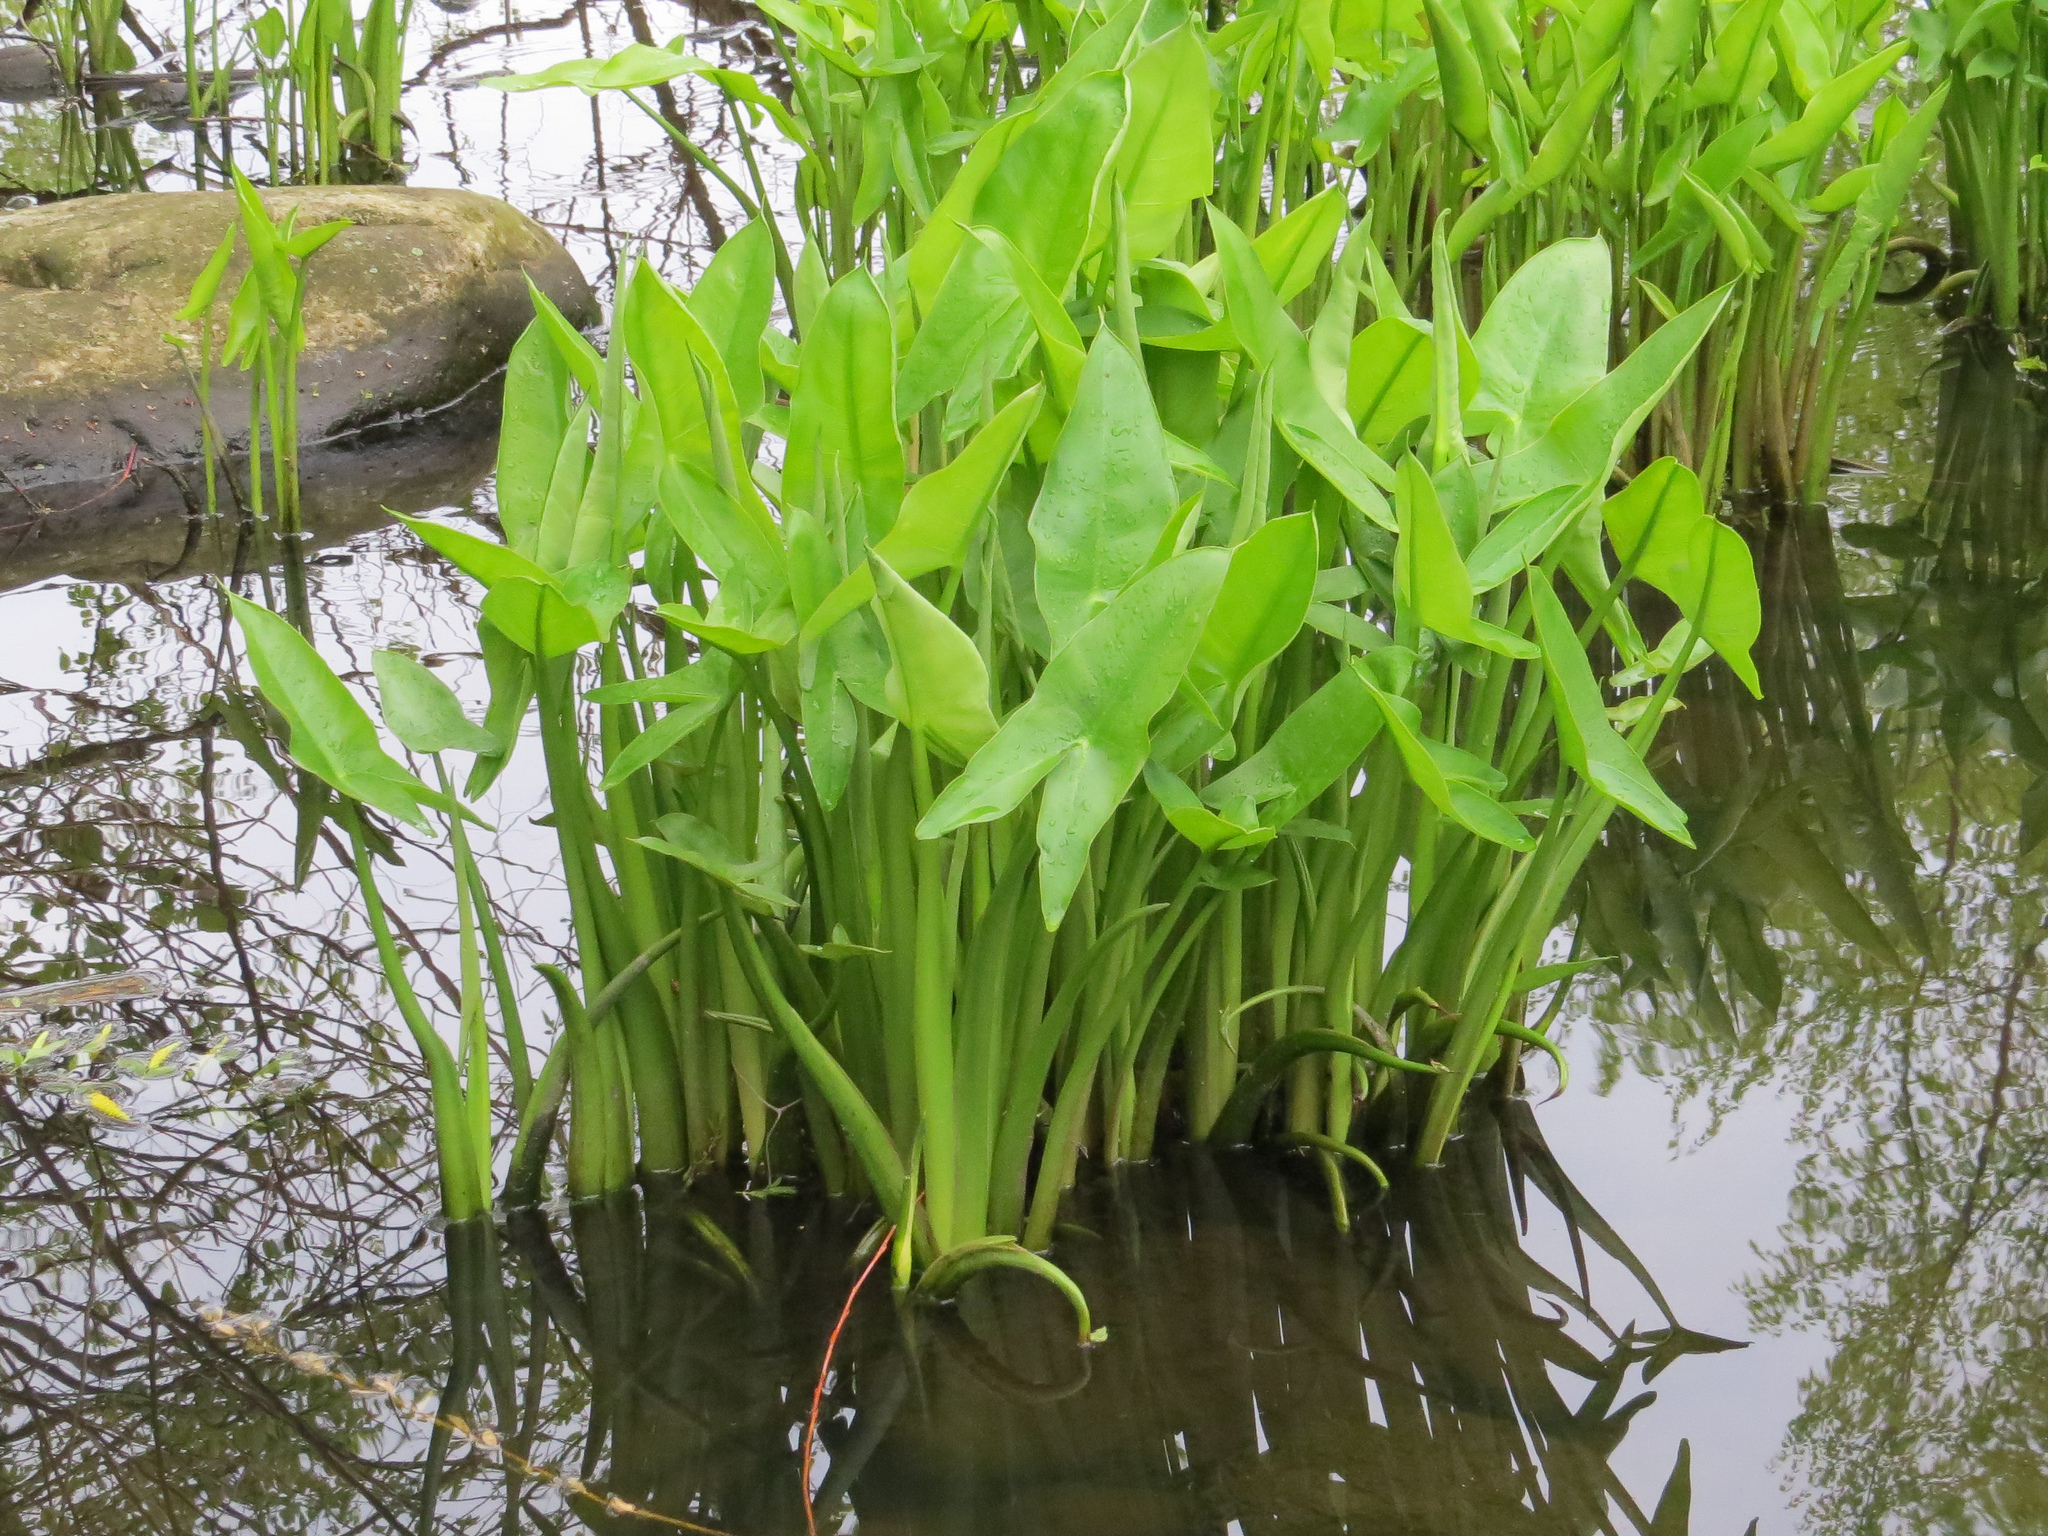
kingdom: Plantae
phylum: Tracheophyta
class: Liliopsida
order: Alismatales
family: Araceae
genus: Peltandra
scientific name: Peltandra virginica
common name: Arrow arum
